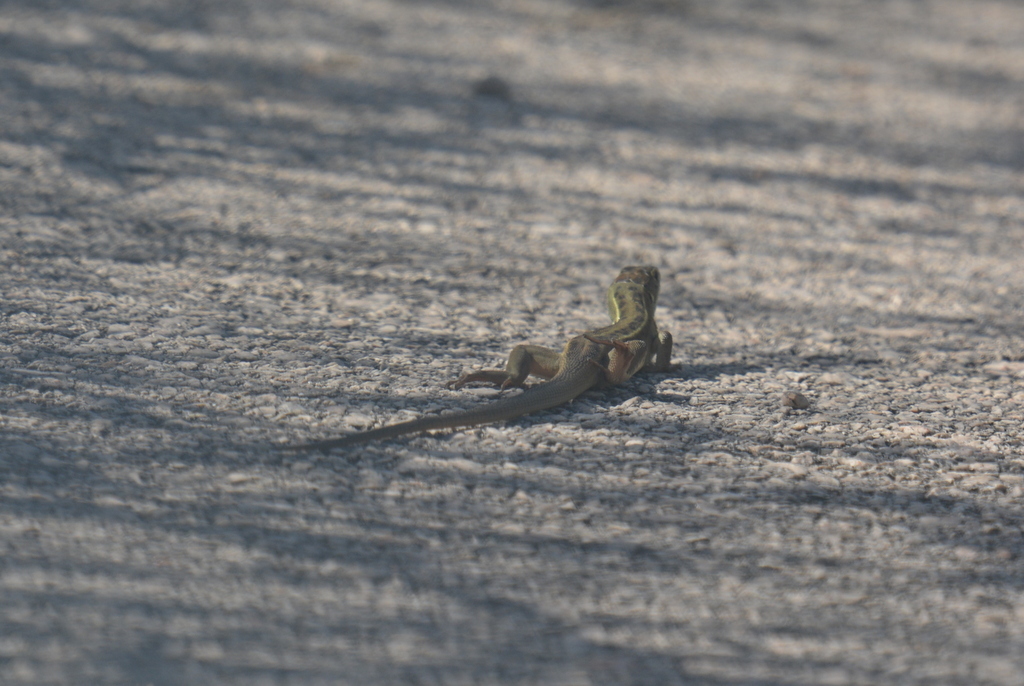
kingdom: Animalia
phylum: Chordata
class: Squamata
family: Lacertidae
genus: Lacerta
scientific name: Lacerta viridis
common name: European green lizard
